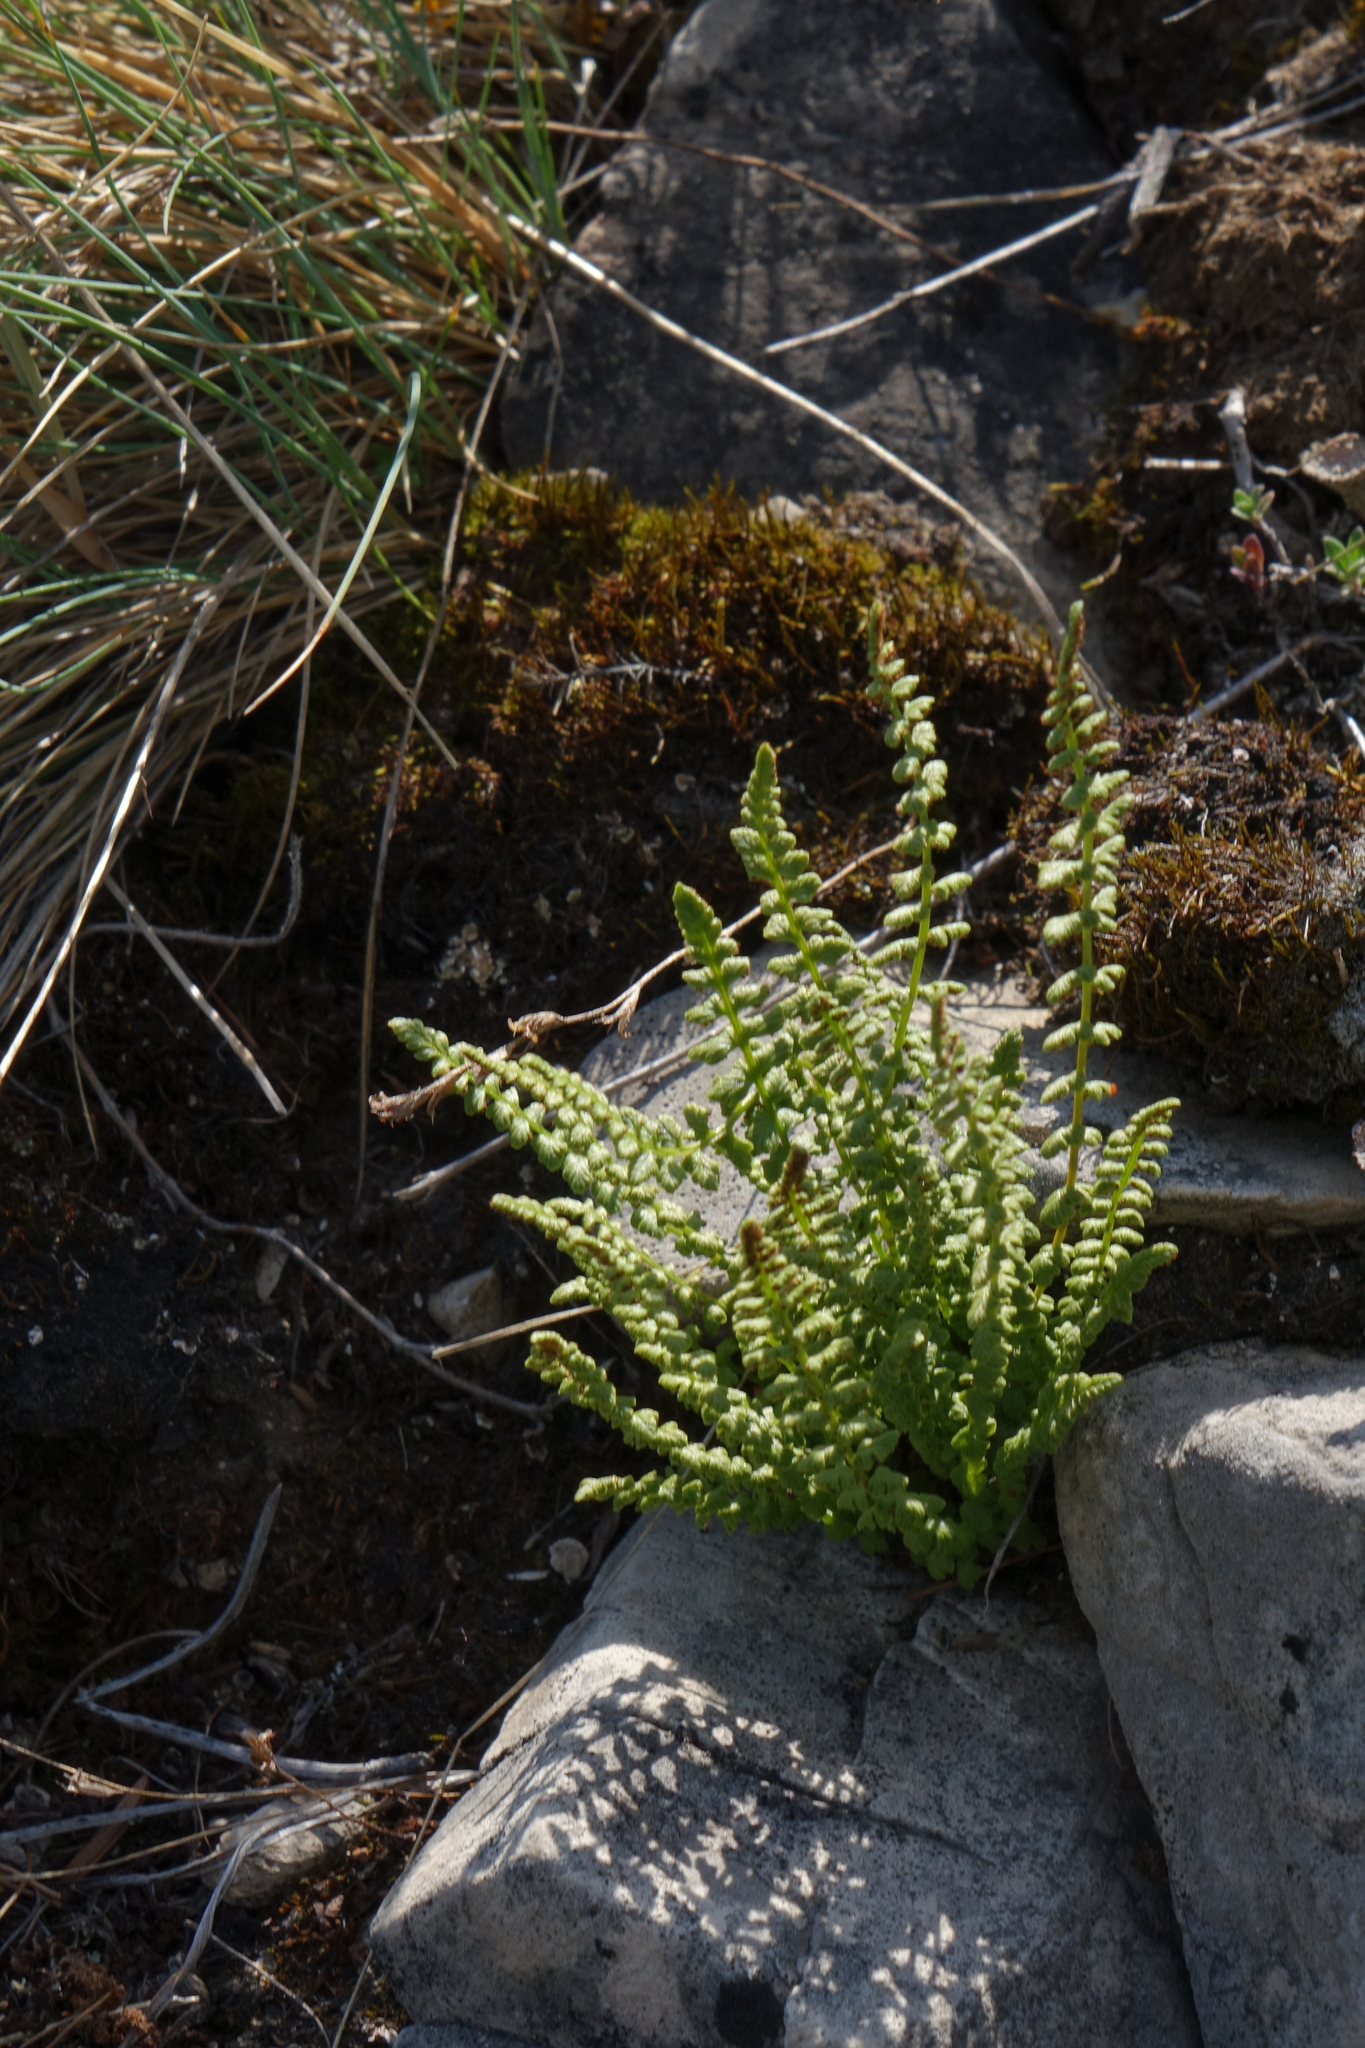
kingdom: Plantae
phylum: Tracheophyta
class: Polypodiopsida
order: Polypodiales
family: Woodsiaceae
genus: Woodsia
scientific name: Woodsia glabella
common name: Smooth woodsia
